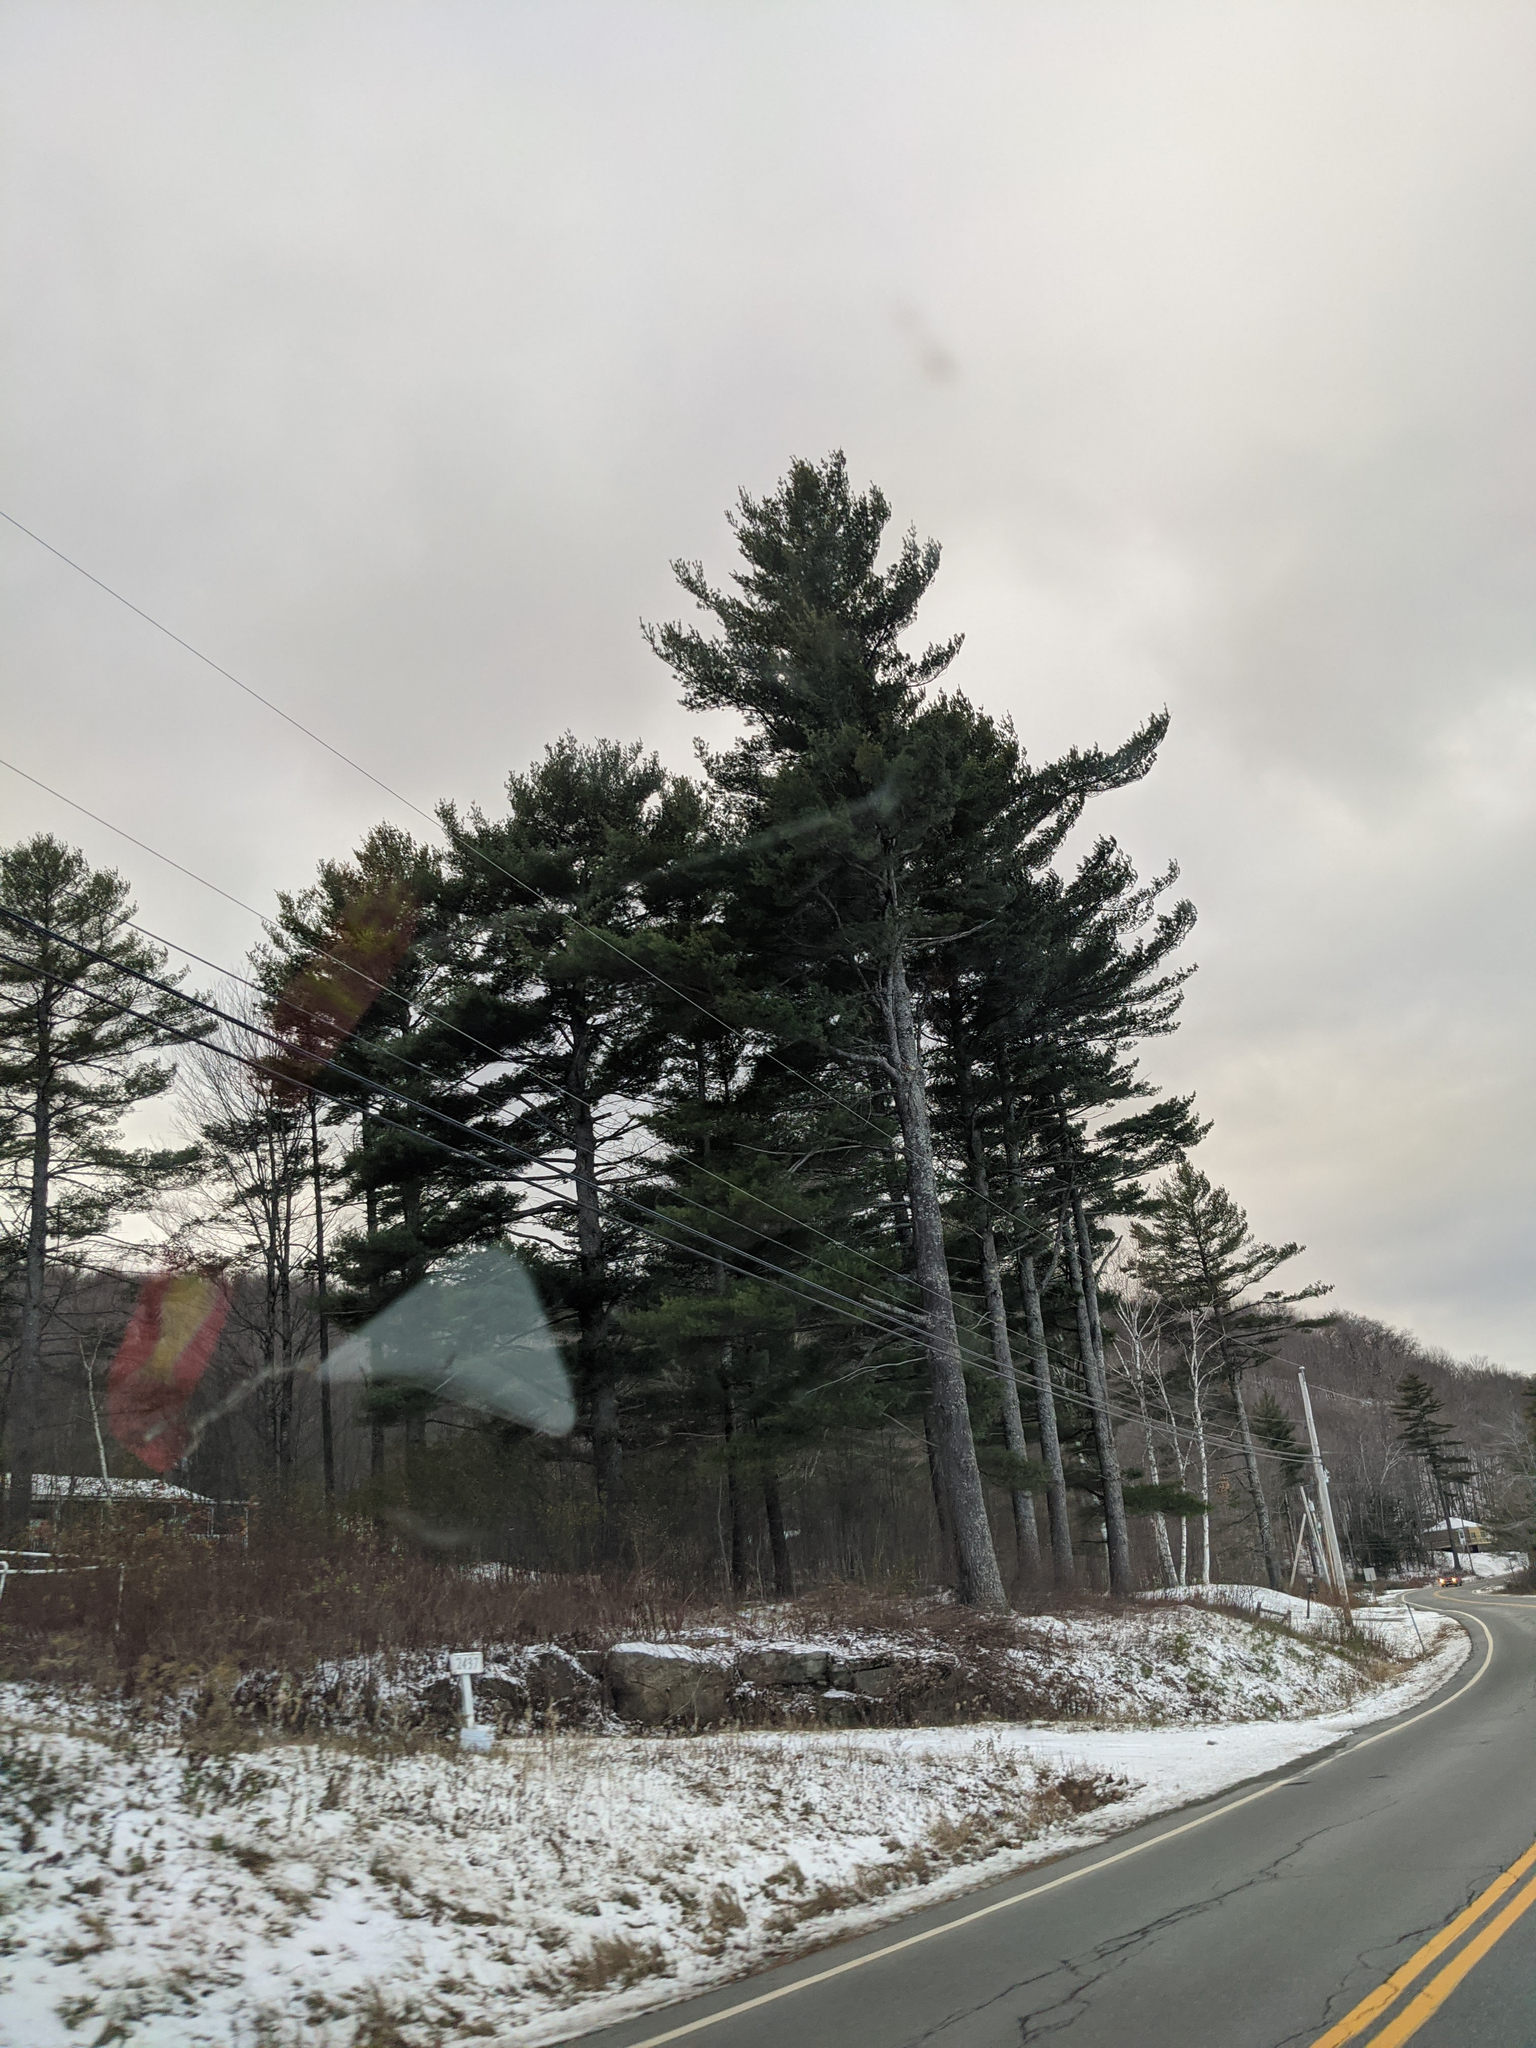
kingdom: Plantae
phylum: Tracheophyta
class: Pinopsida
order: Pinales
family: Pinaceae
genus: Pinus
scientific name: Pinus strobus
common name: Weymouth pine
